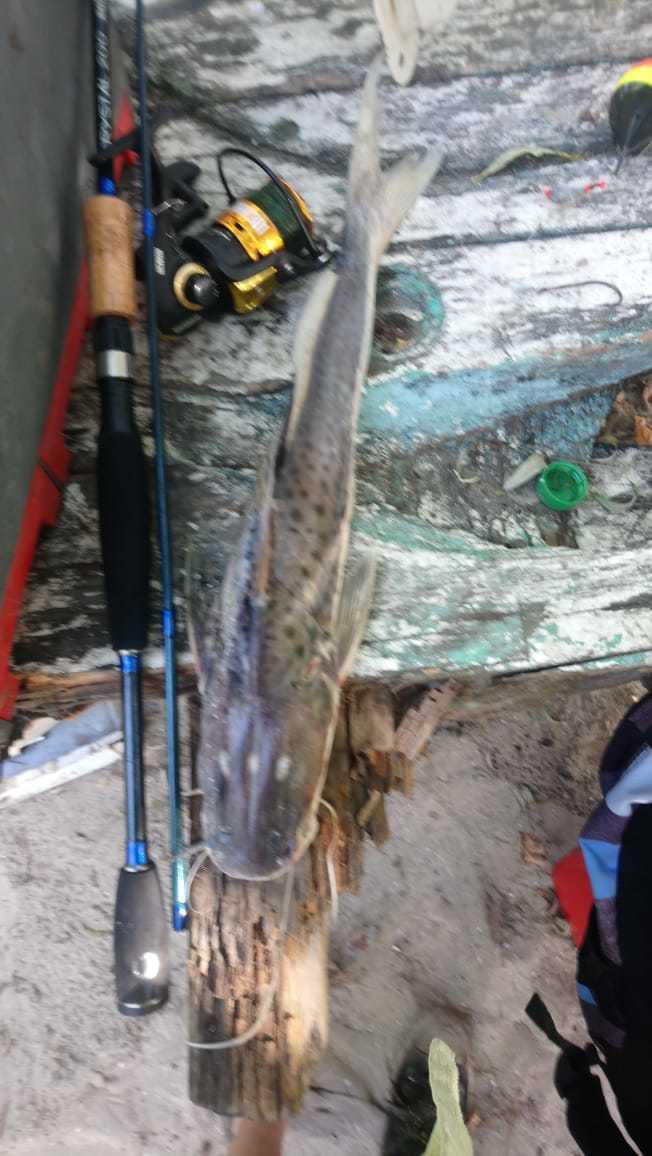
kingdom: Animalia
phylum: Chordata
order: Siluriformes
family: Pimelodidae
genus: Luciopimelodus
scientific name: Luciopimelodus pati
